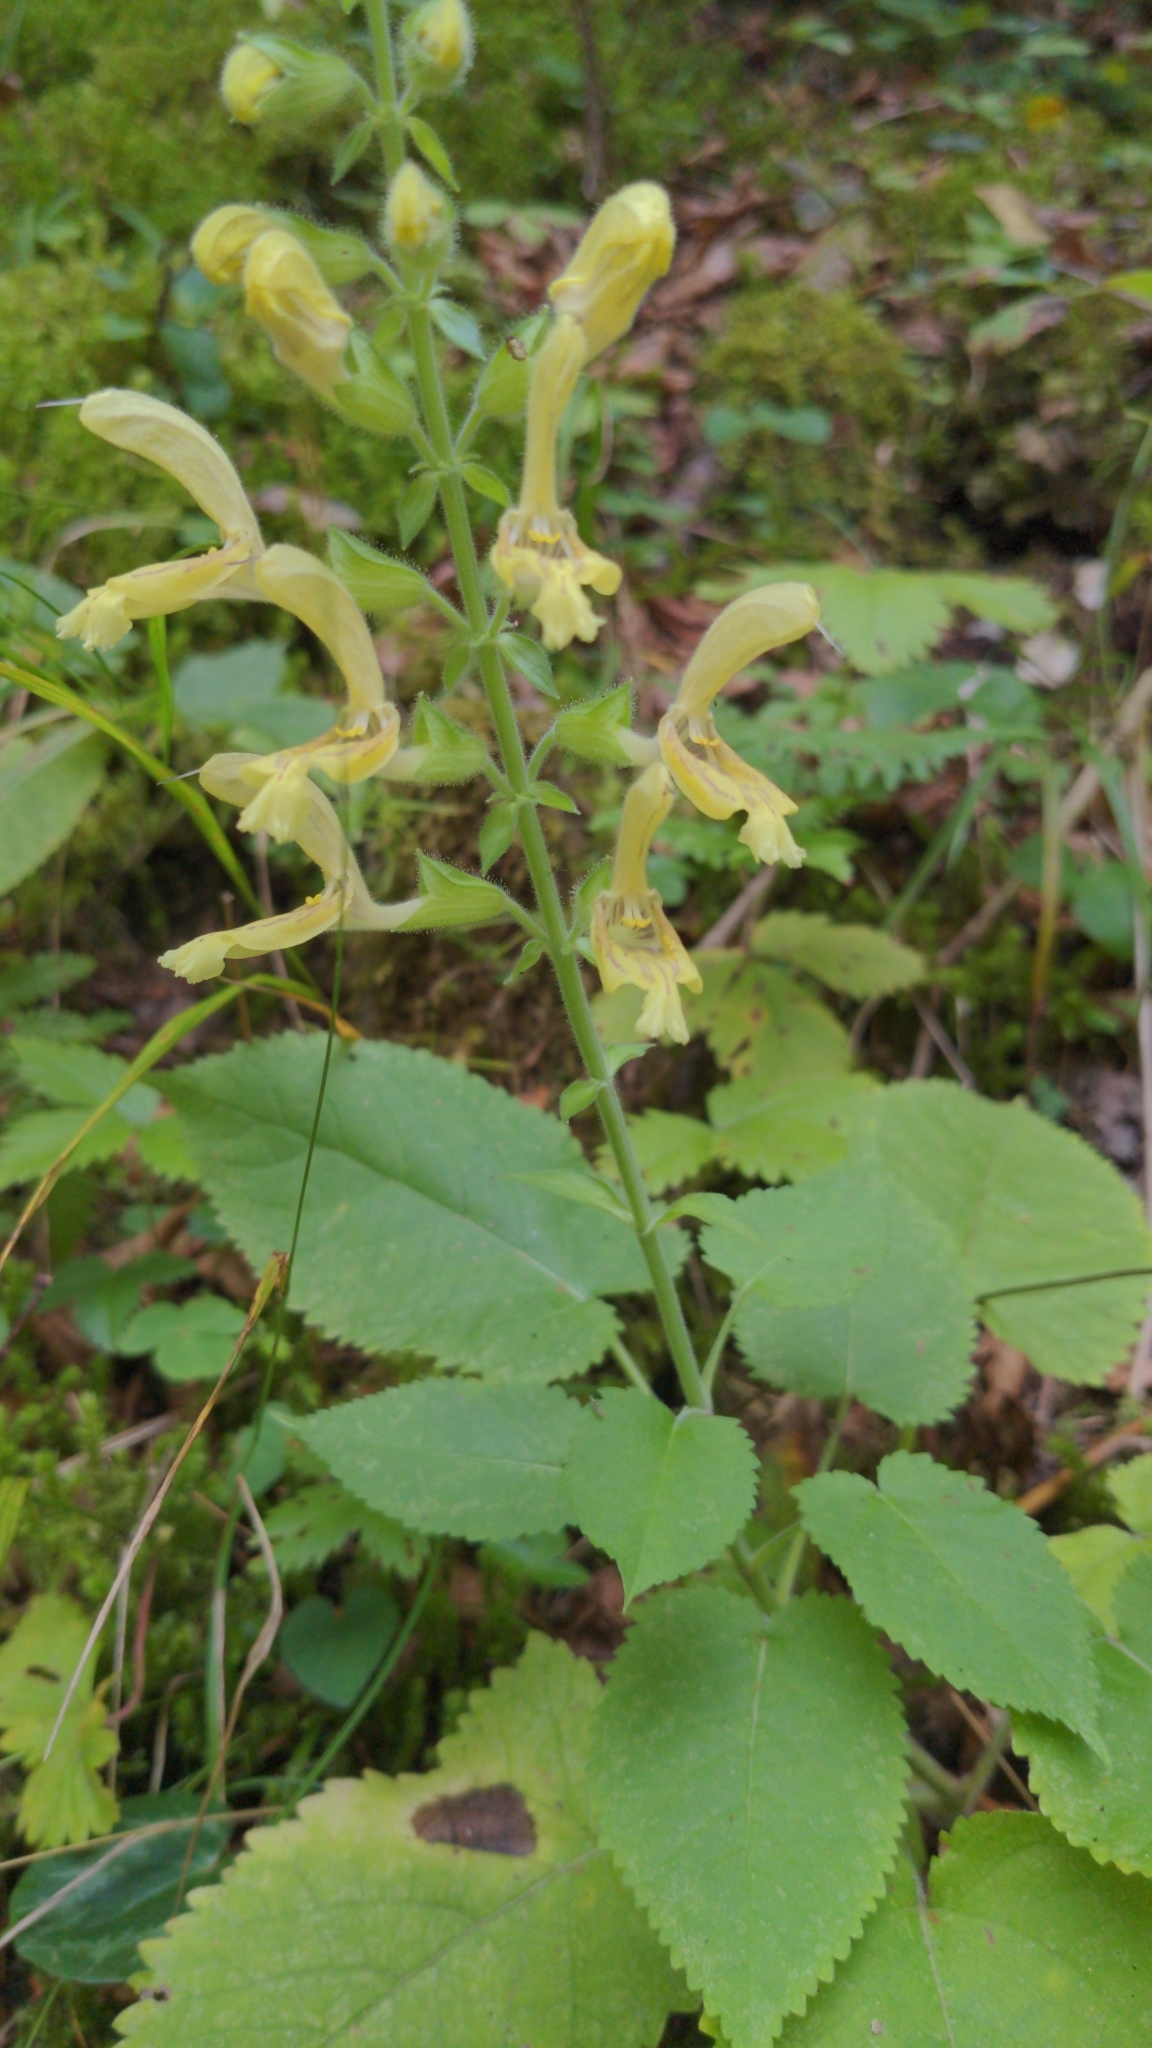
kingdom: Plantae
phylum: Tracheophyta
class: Magnoliopsida
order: Lamiales
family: Lamiaceae
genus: Salvia
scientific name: Salvia glutinosa
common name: Sticky clary
